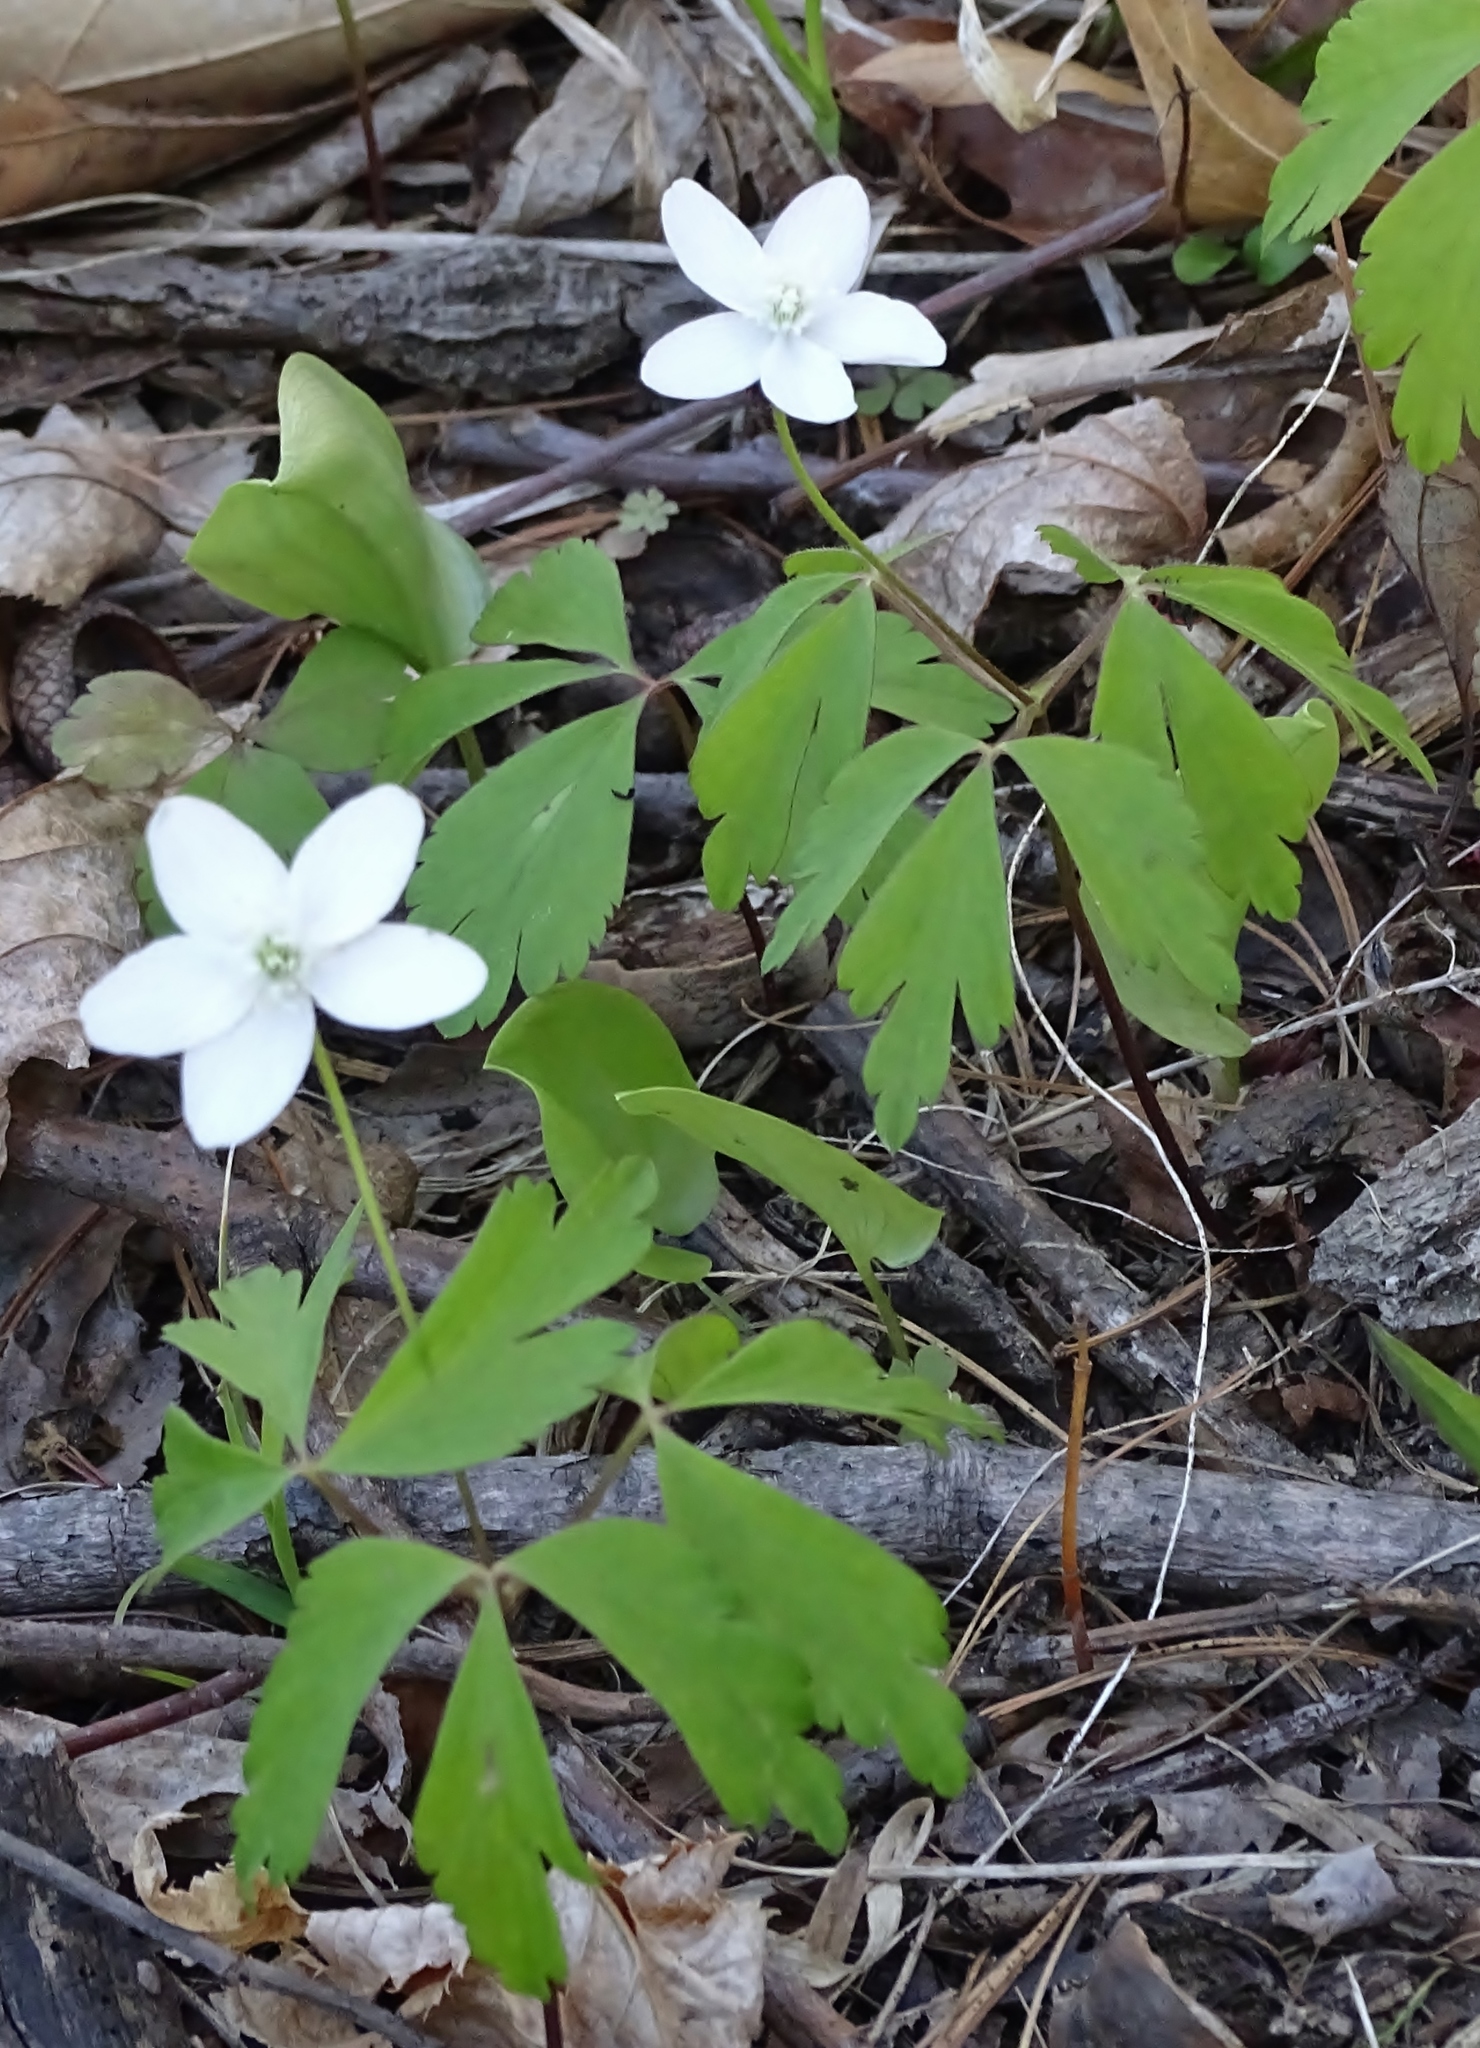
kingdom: Plantae
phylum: Tracheophyta
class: Magnoliopsida
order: Ranunculales
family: Ranunculaceae
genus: Anemone
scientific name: Anemone quinquefolia
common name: Wood anemone
